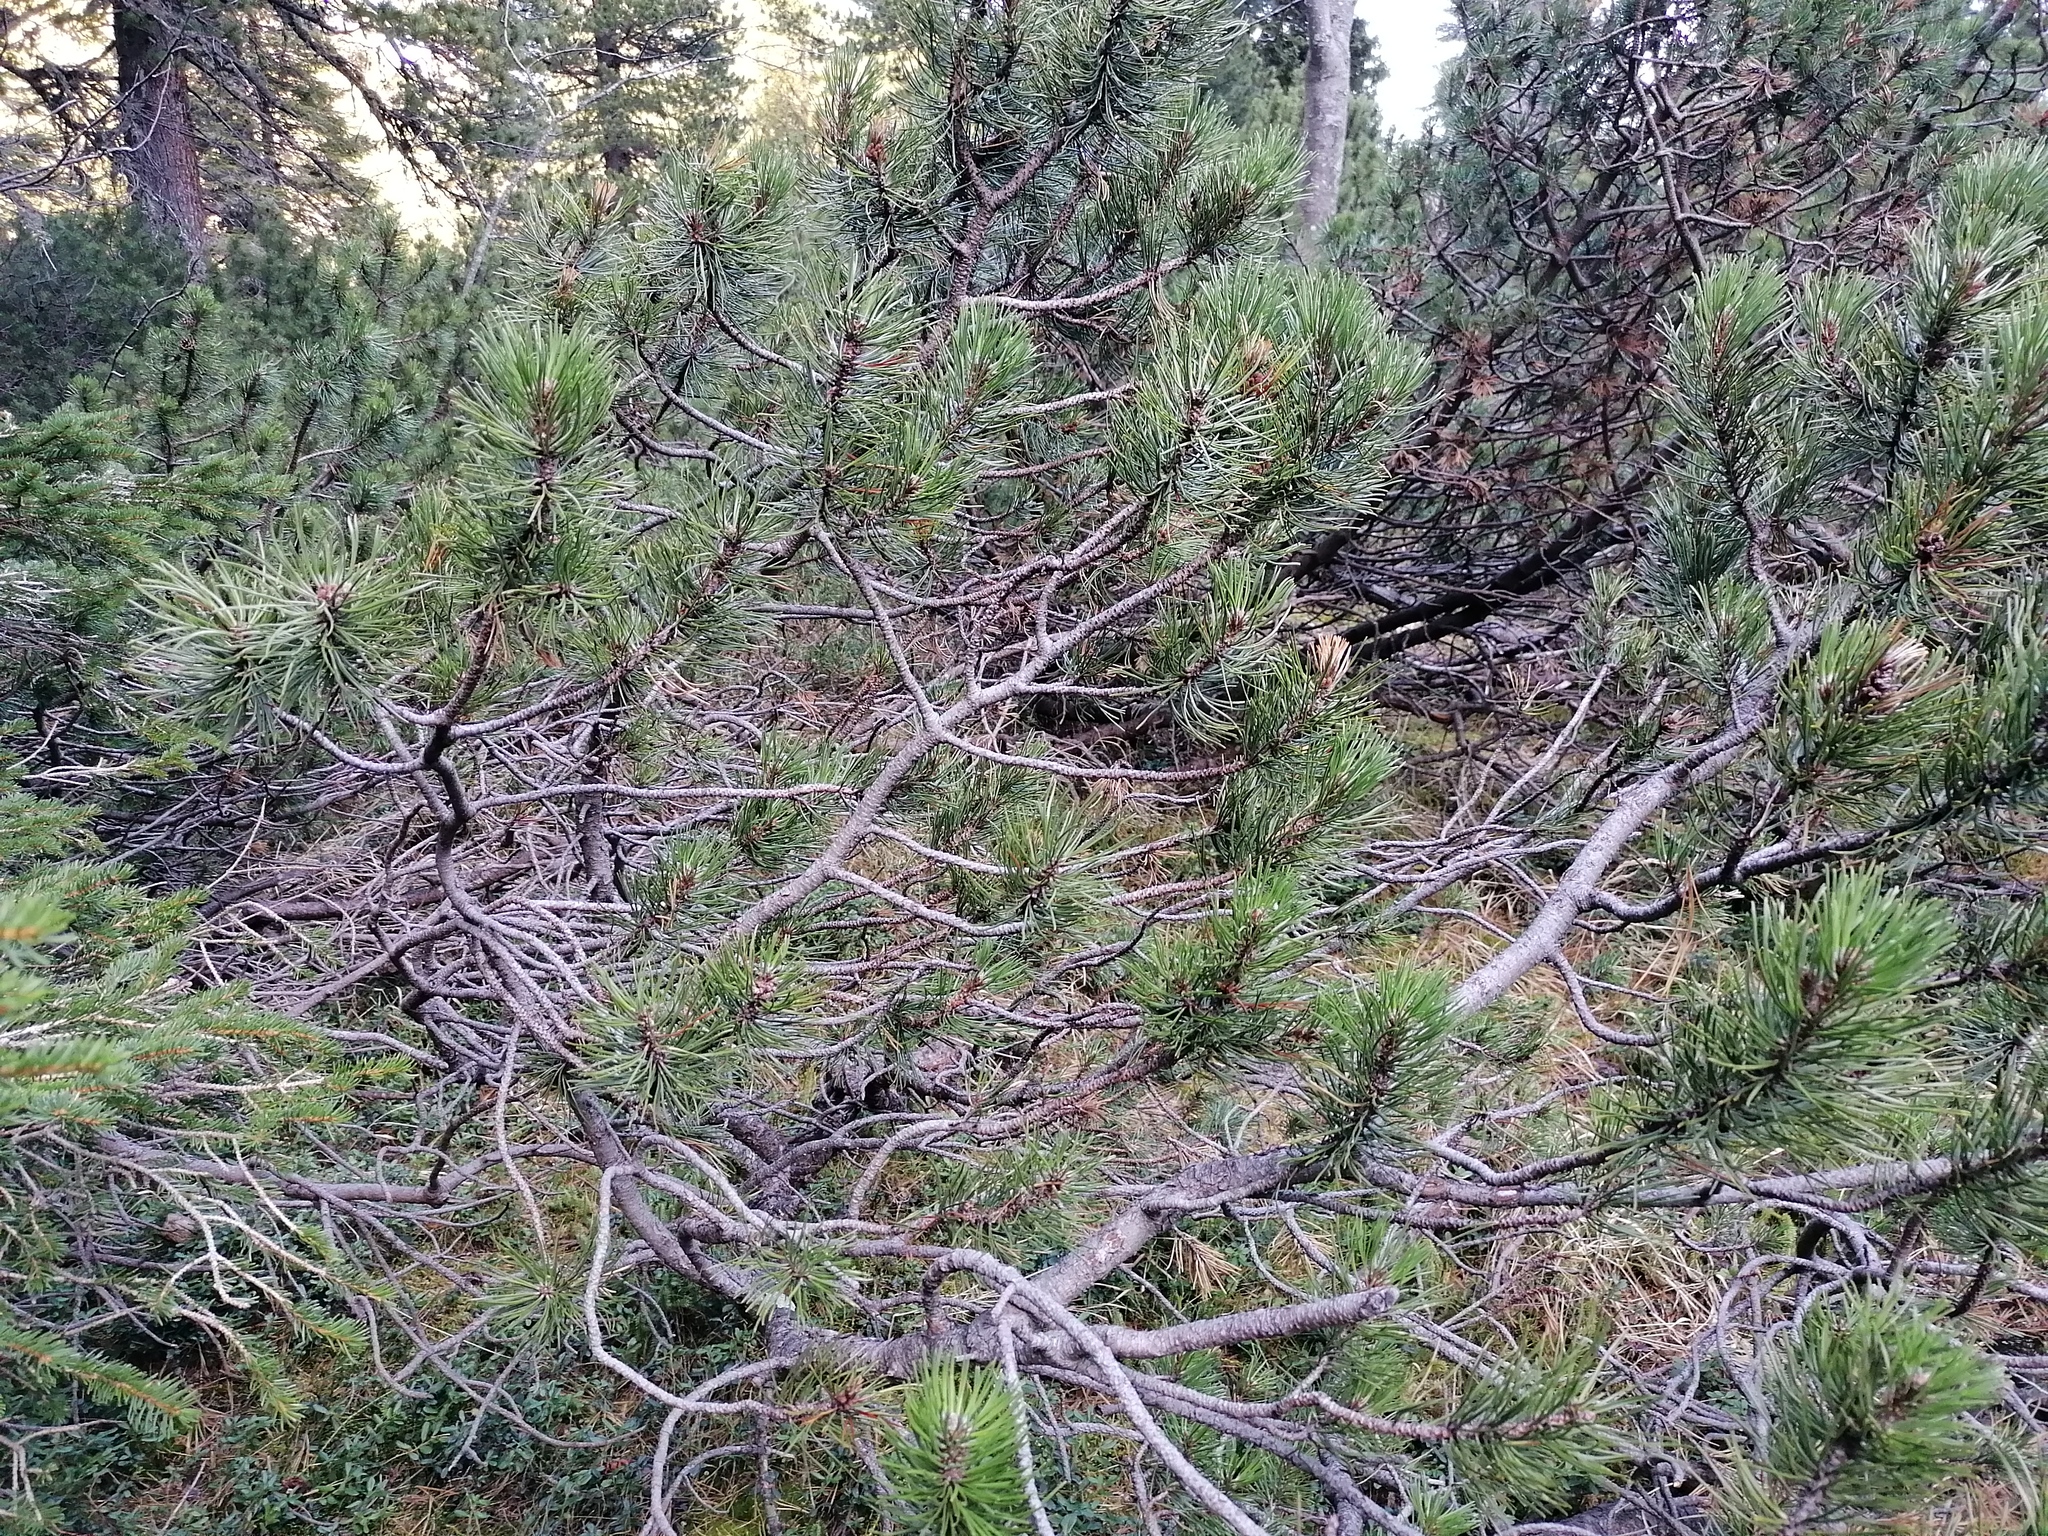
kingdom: Plantae
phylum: Tracheophyta
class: Pinopsida
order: Pinales
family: Pinaceae
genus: Pinus
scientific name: Pinus mugo
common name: Mugo pine
